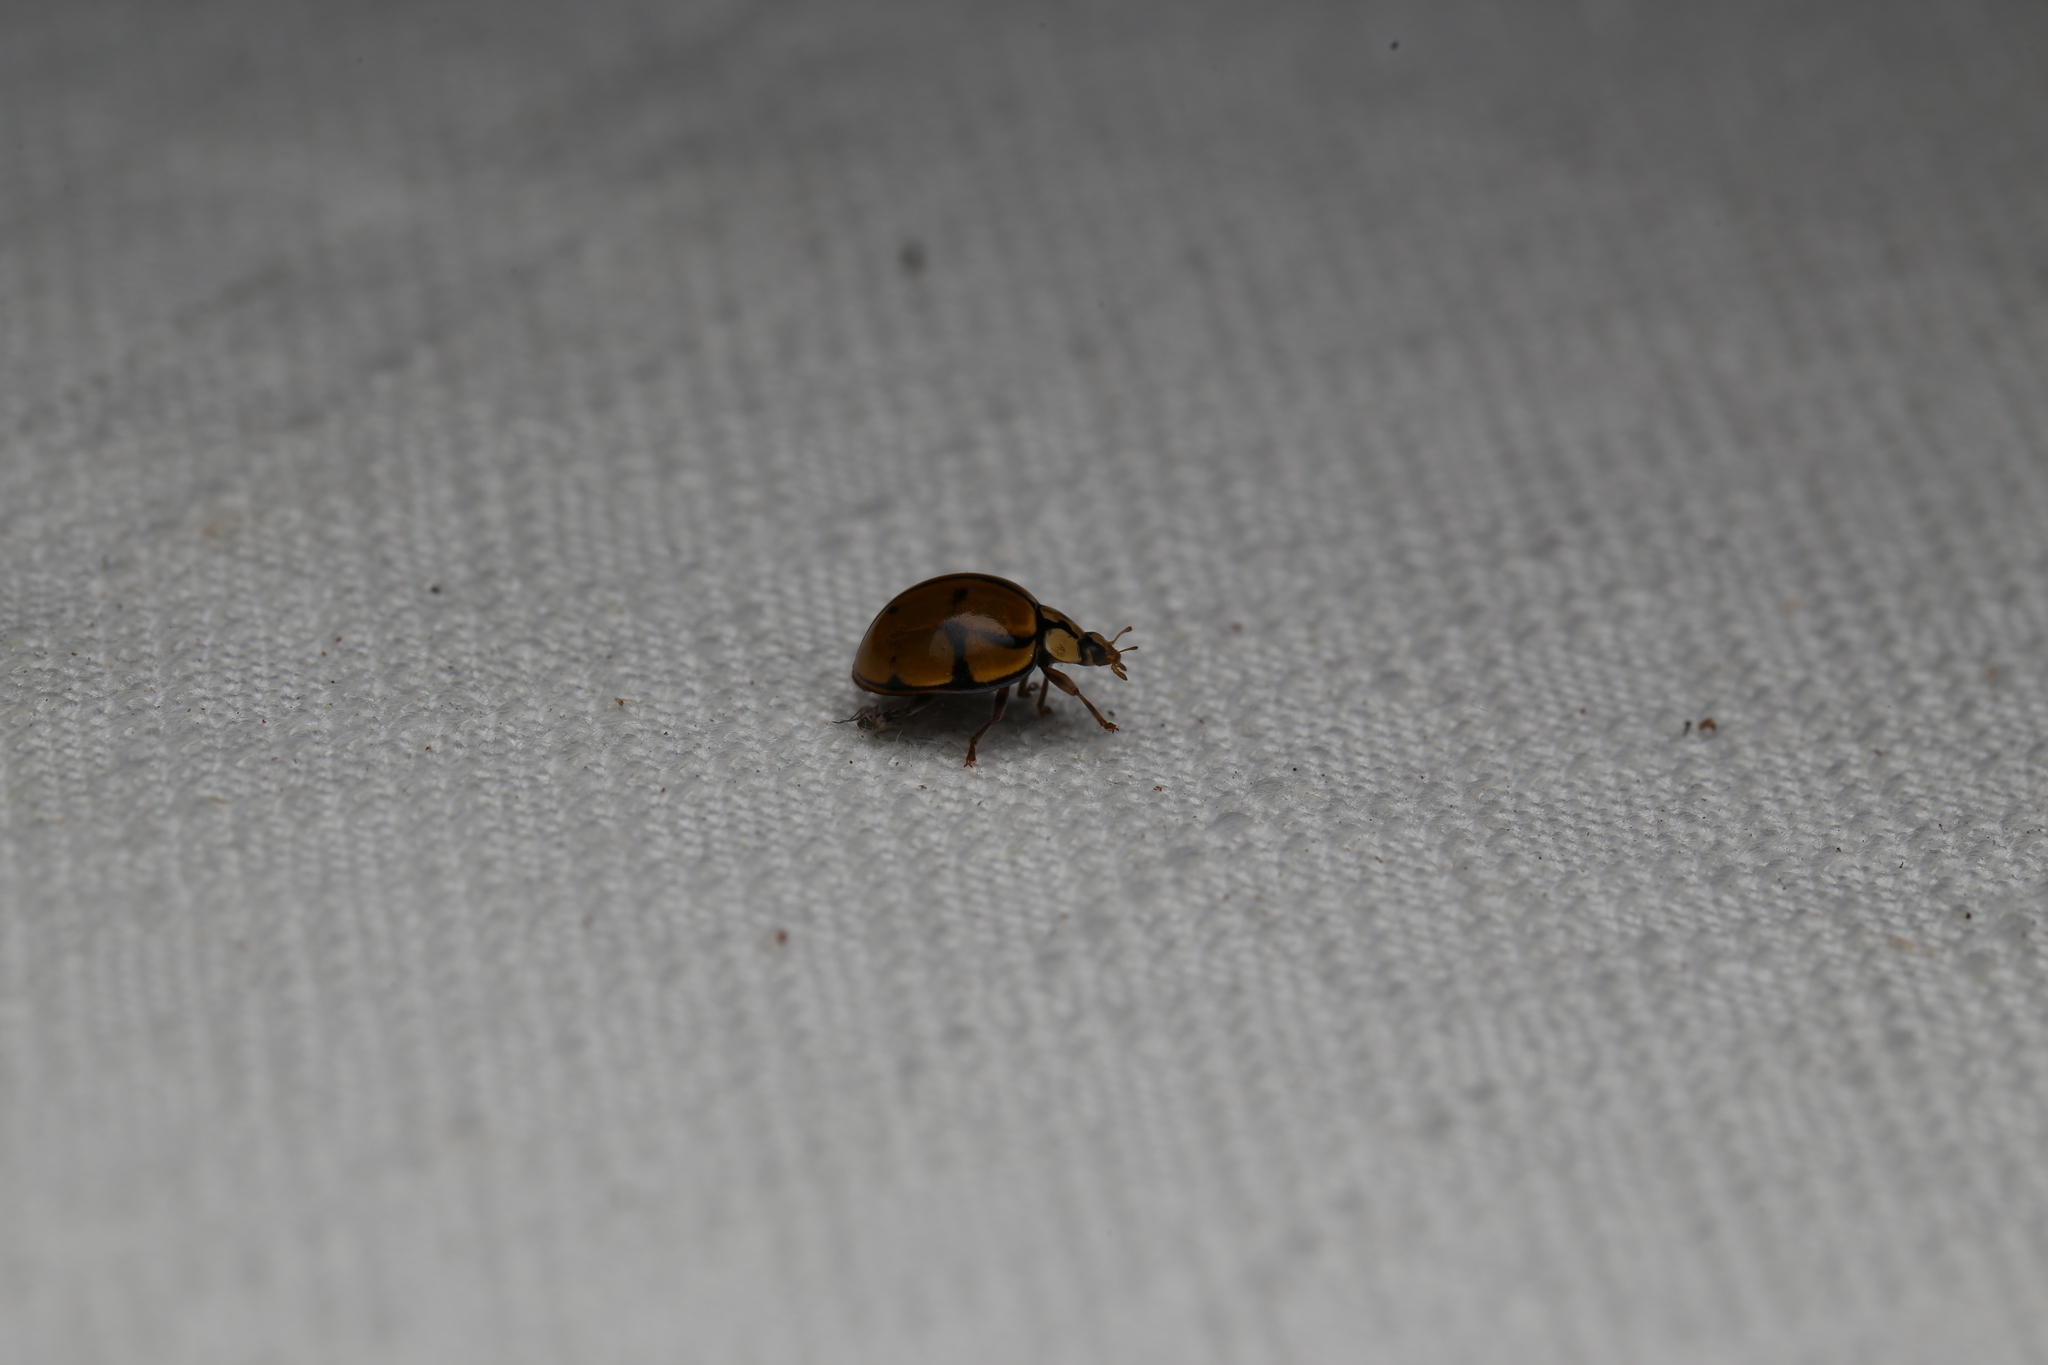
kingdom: Animalia
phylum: Arthropoda
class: Insecta
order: Coleoptera
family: Coccinellidae
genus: Harmonia
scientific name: Harmonia
